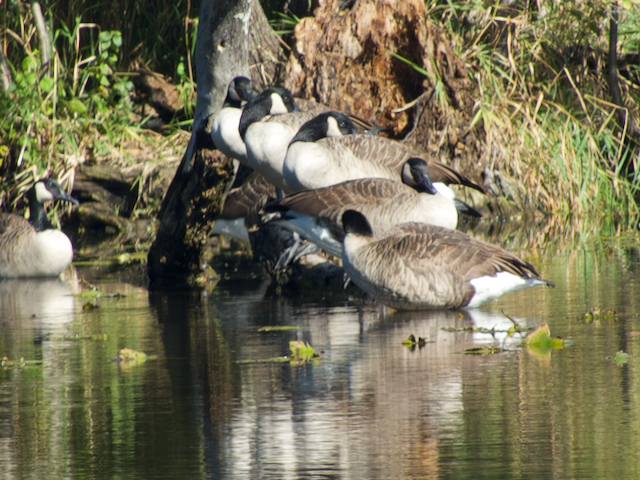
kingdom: Animalia
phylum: Chordata
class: Aves
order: Anseriformes
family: Anatidae
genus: Branta
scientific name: Branta canadensis
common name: Canada goose
